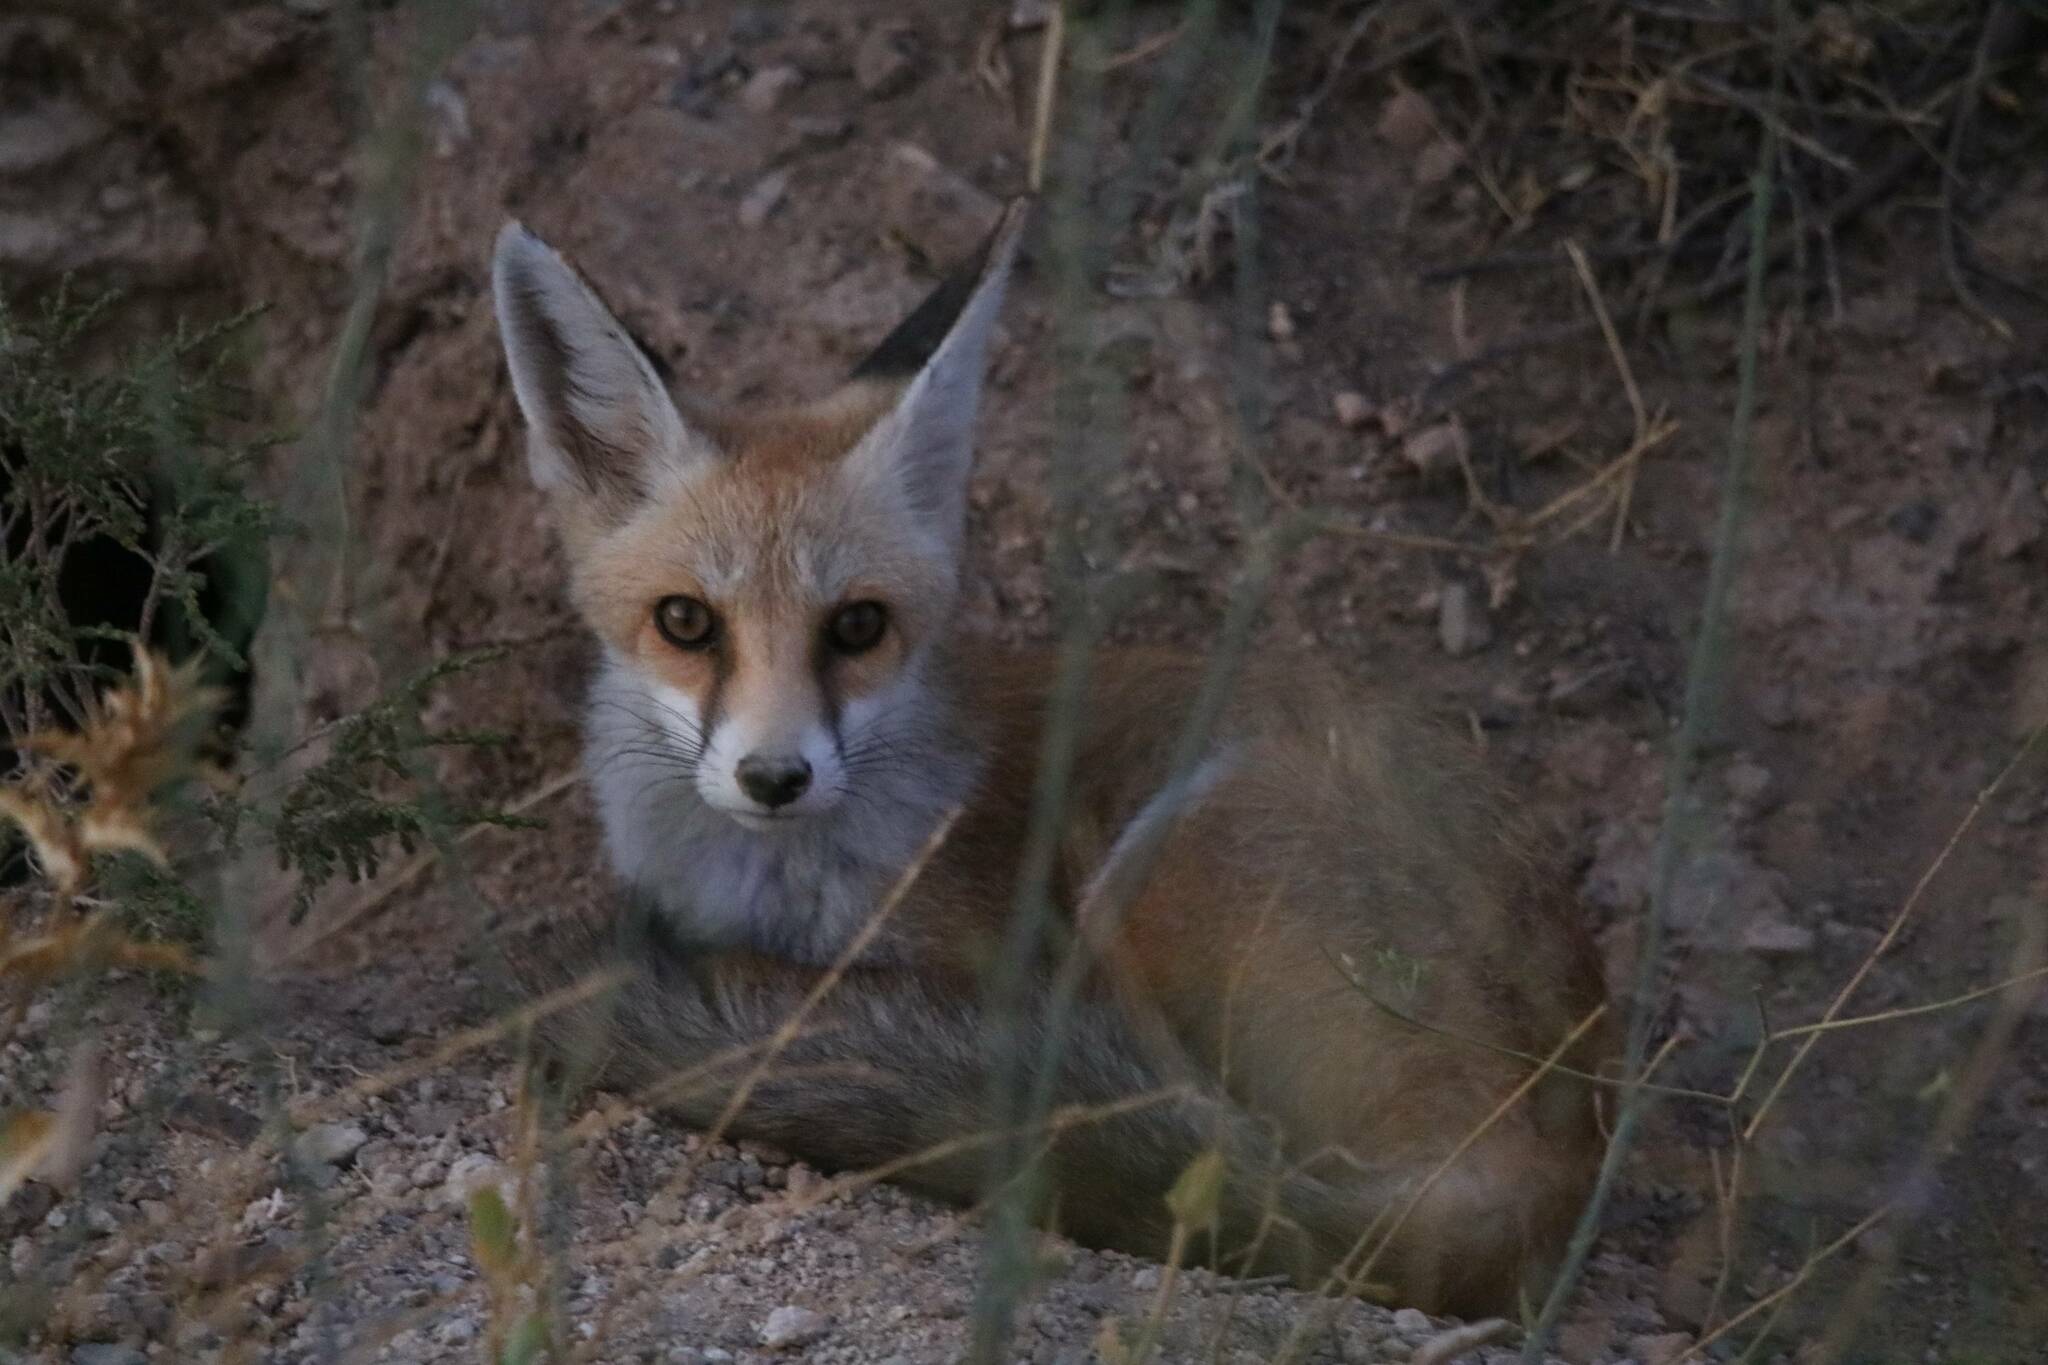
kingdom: Animalia
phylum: Chordata
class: Mammalia
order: Carnivora
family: Canidae
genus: Vulpes
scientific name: Vulpes vulpes
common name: Red fox
